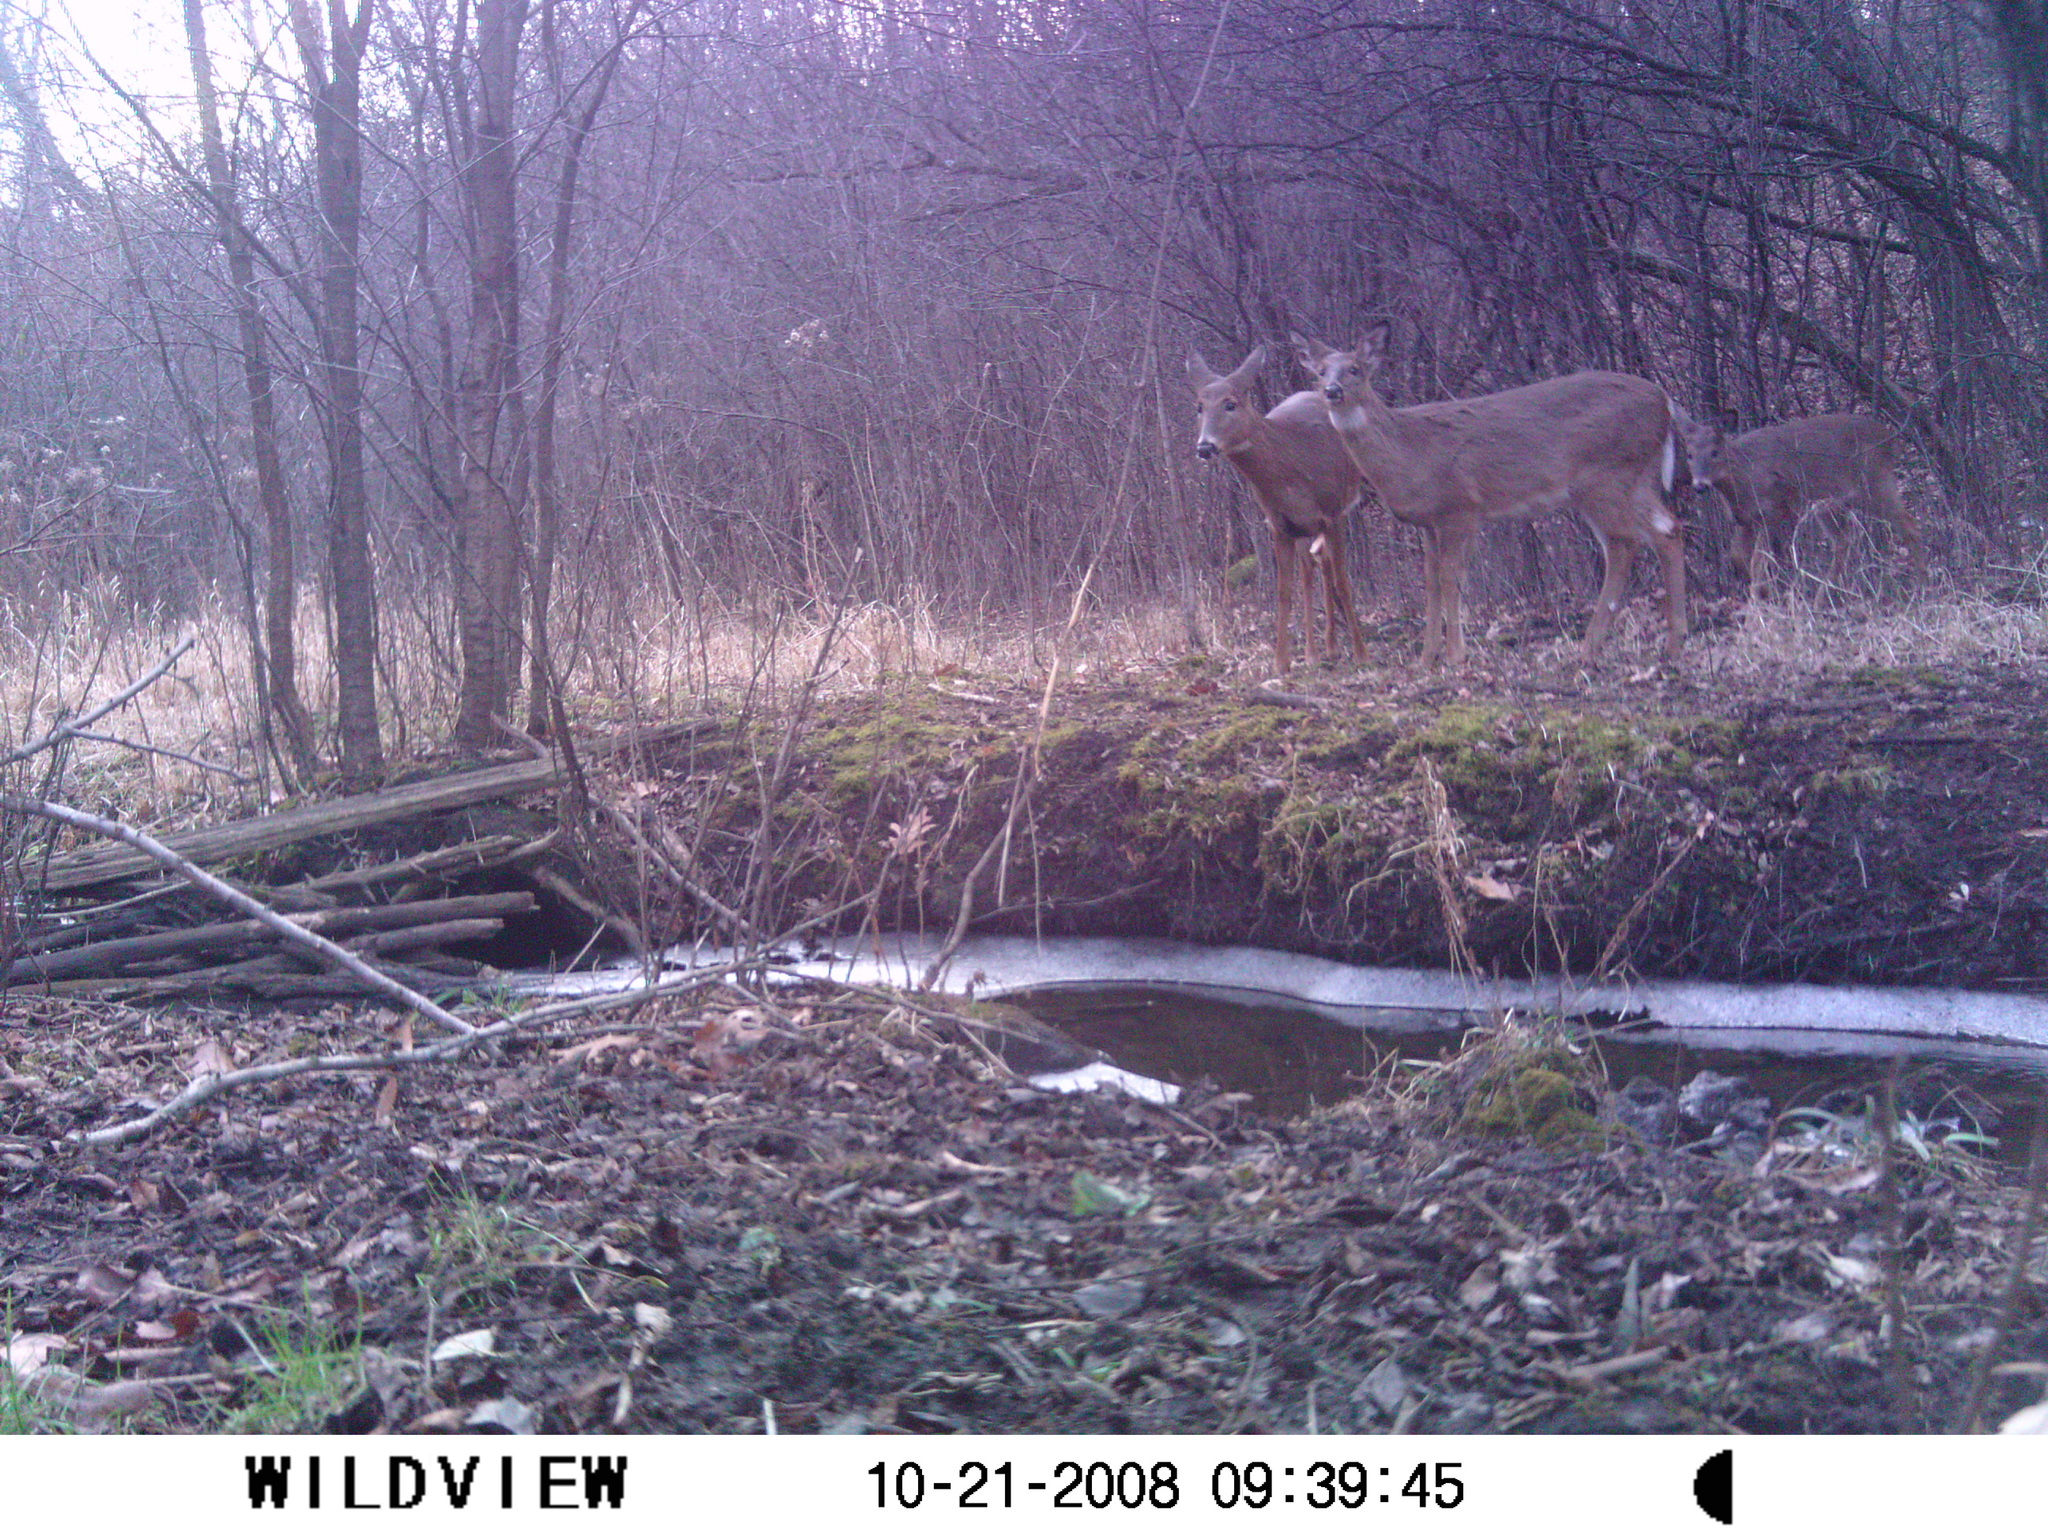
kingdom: Animalia
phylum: Chordata
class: Mammalia
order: Artiodactyla
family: Cervidae
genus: Odocoileus
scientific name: Odocoileus virginianus
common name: White-tailed deer
